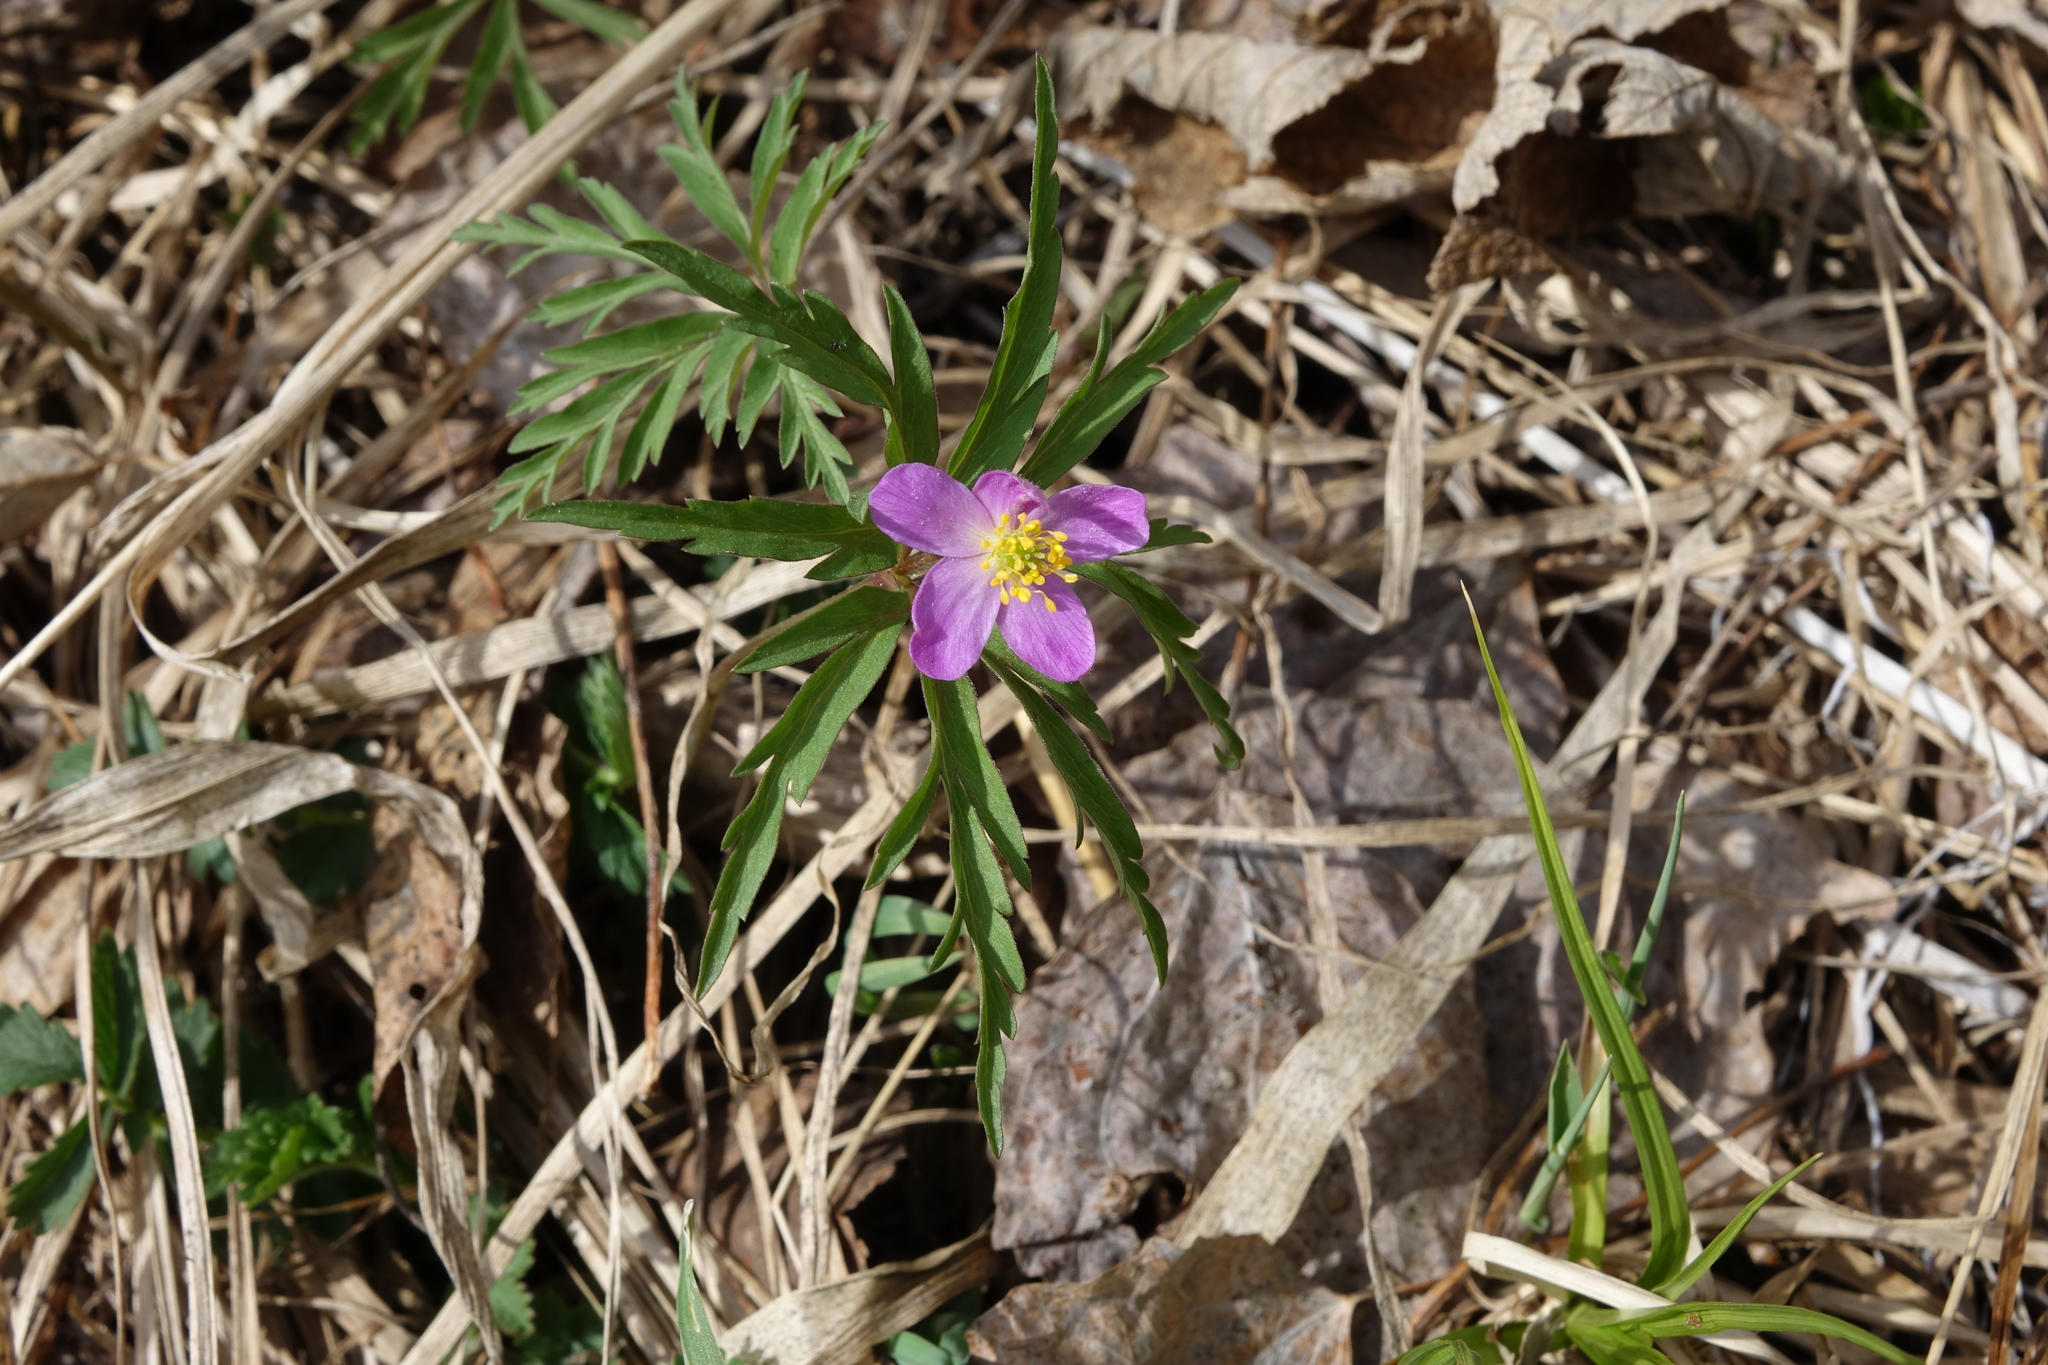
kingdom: Plantae
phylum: Tracheophyta
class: Magnoliopsida
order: Ranunculales
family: Ranunculaceae
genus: Anemone
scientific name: Anemone caerulea
